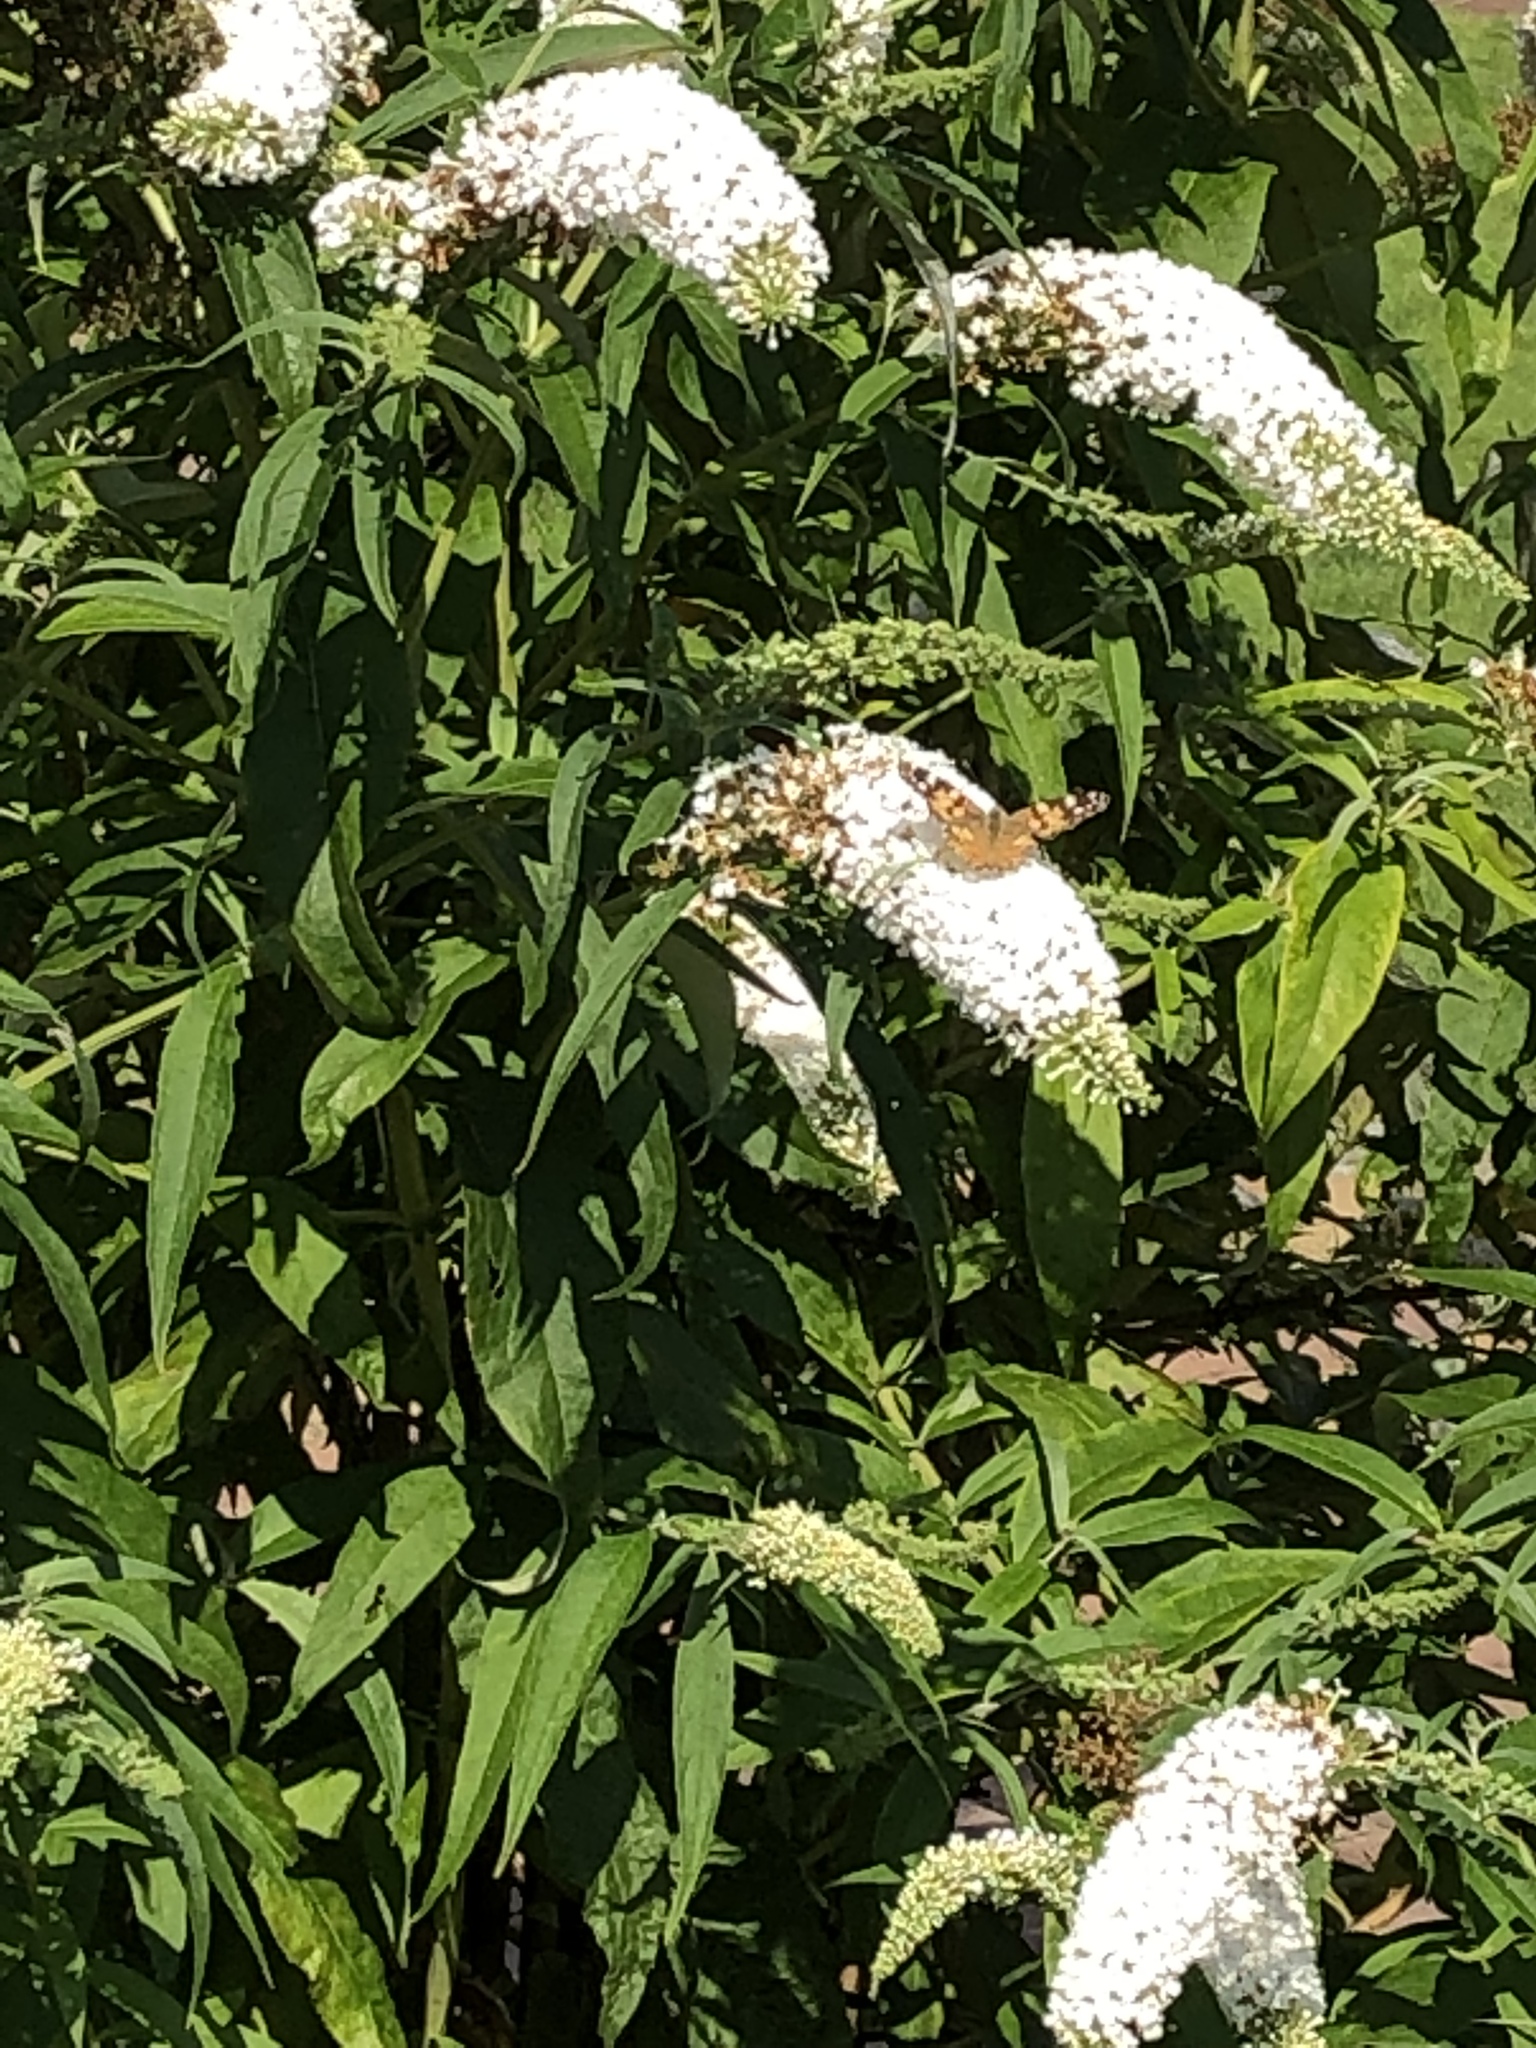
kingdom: Animalia
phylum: Arthropoda
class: Insecta
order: Lepidoptera
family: Nymphalidae
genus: Vanessa
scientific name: Vanessa cardui
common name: Painted lady
